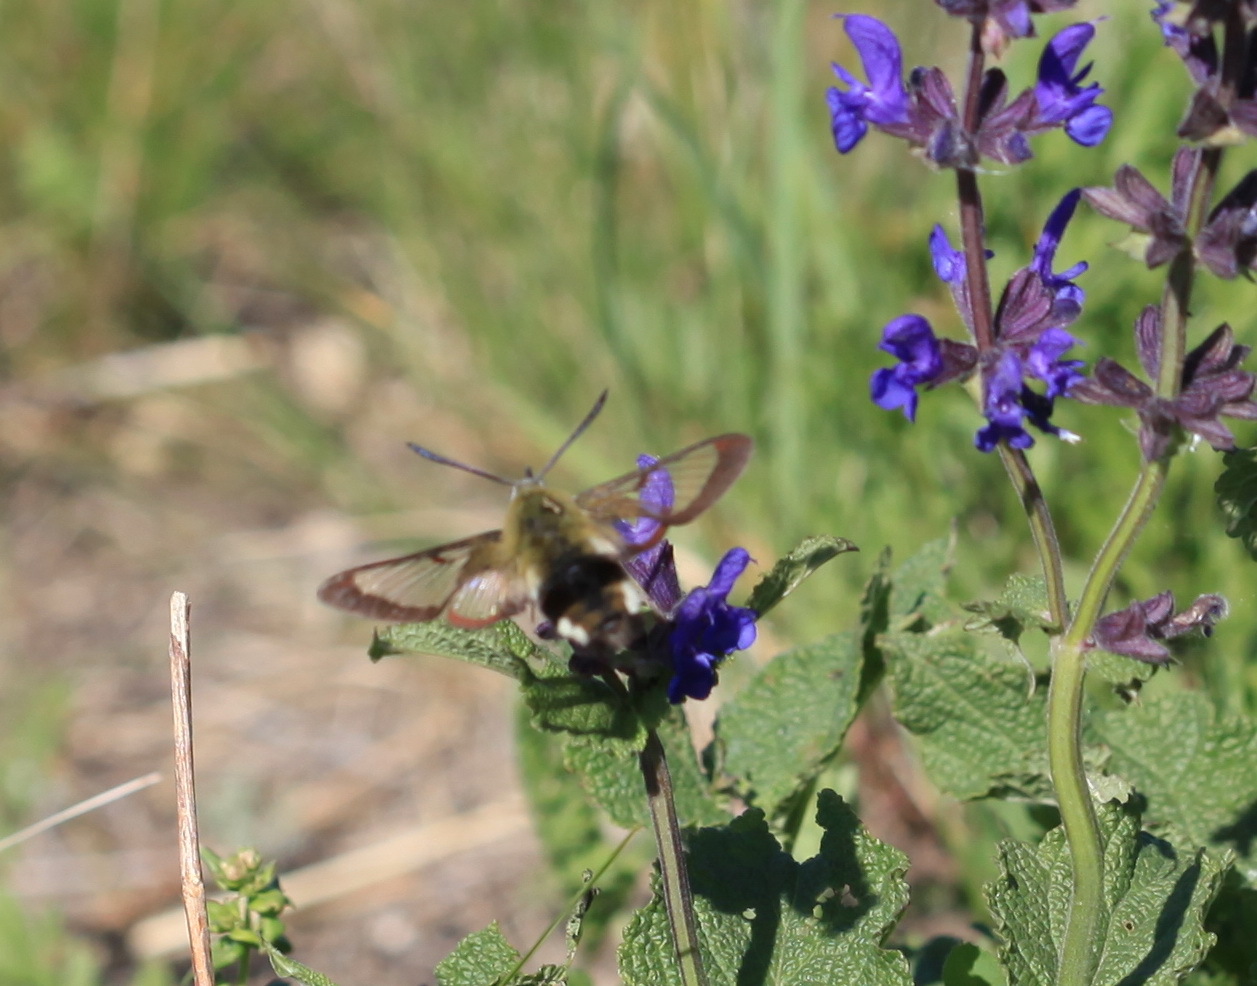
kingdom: Animalia
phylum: Arthropoda
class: Insecta
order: Lepidoptera
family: Sphingidae
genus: Hemaris
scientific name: Hemaris fuciformis
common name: Broad-bordered bee hawk-moth
